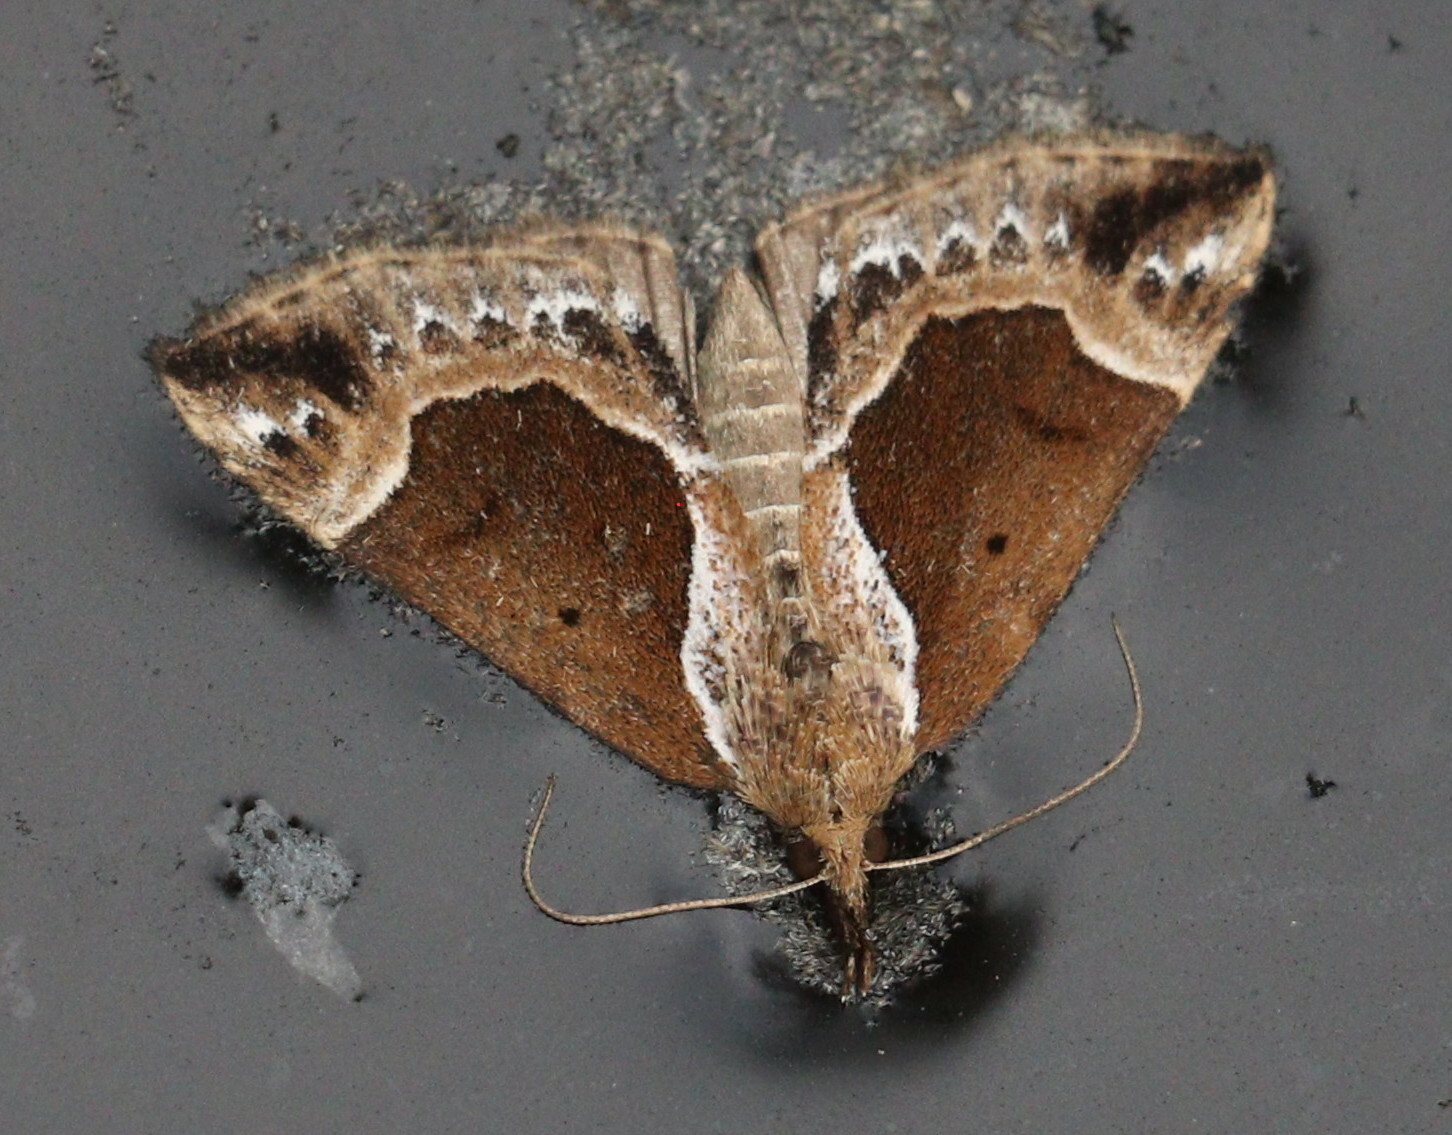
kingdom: Animalia
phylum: Arthropoda
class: Insecta
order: Lepidoptera
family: Erebidae
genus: Hypena
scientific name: Hypena crassalis
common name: Beautiful snout
